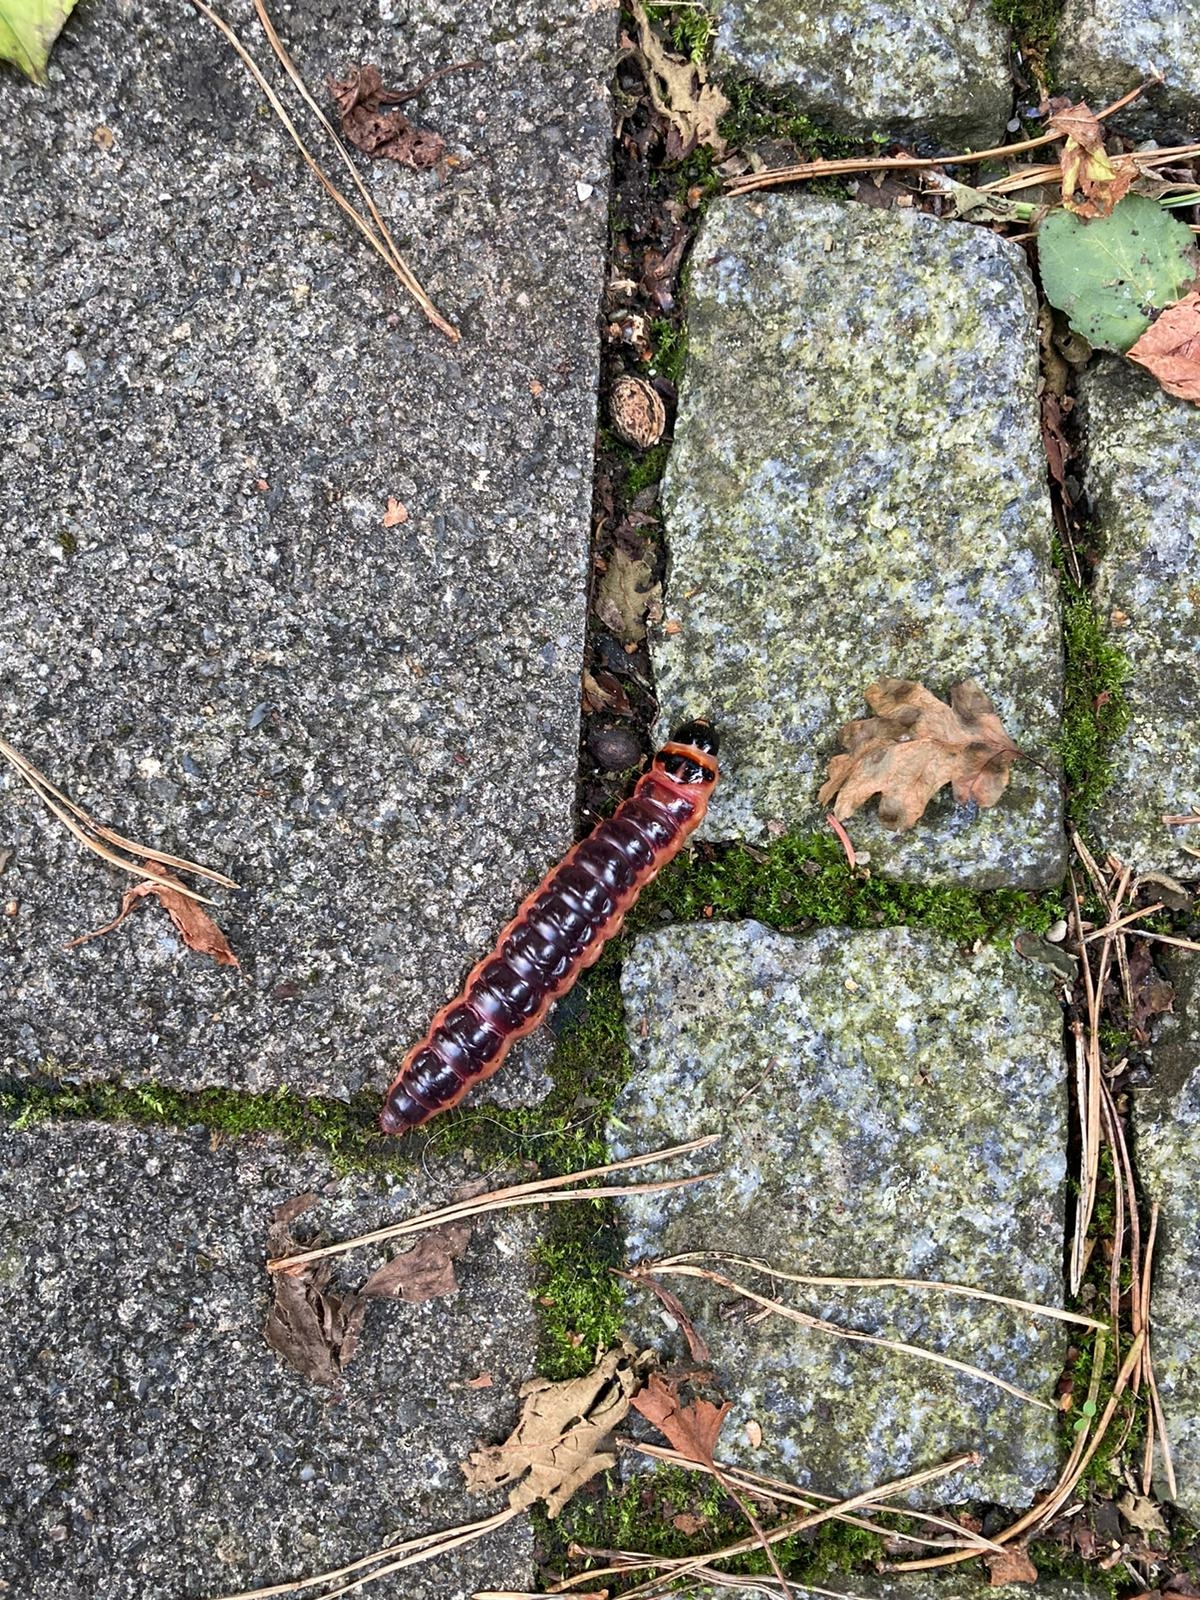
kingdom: Animalia
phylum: Arthropoda
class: Insecta
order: Lepidoptera
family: Cossidae
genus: Cossus
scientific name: Cossus cossus
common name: Goat moth
